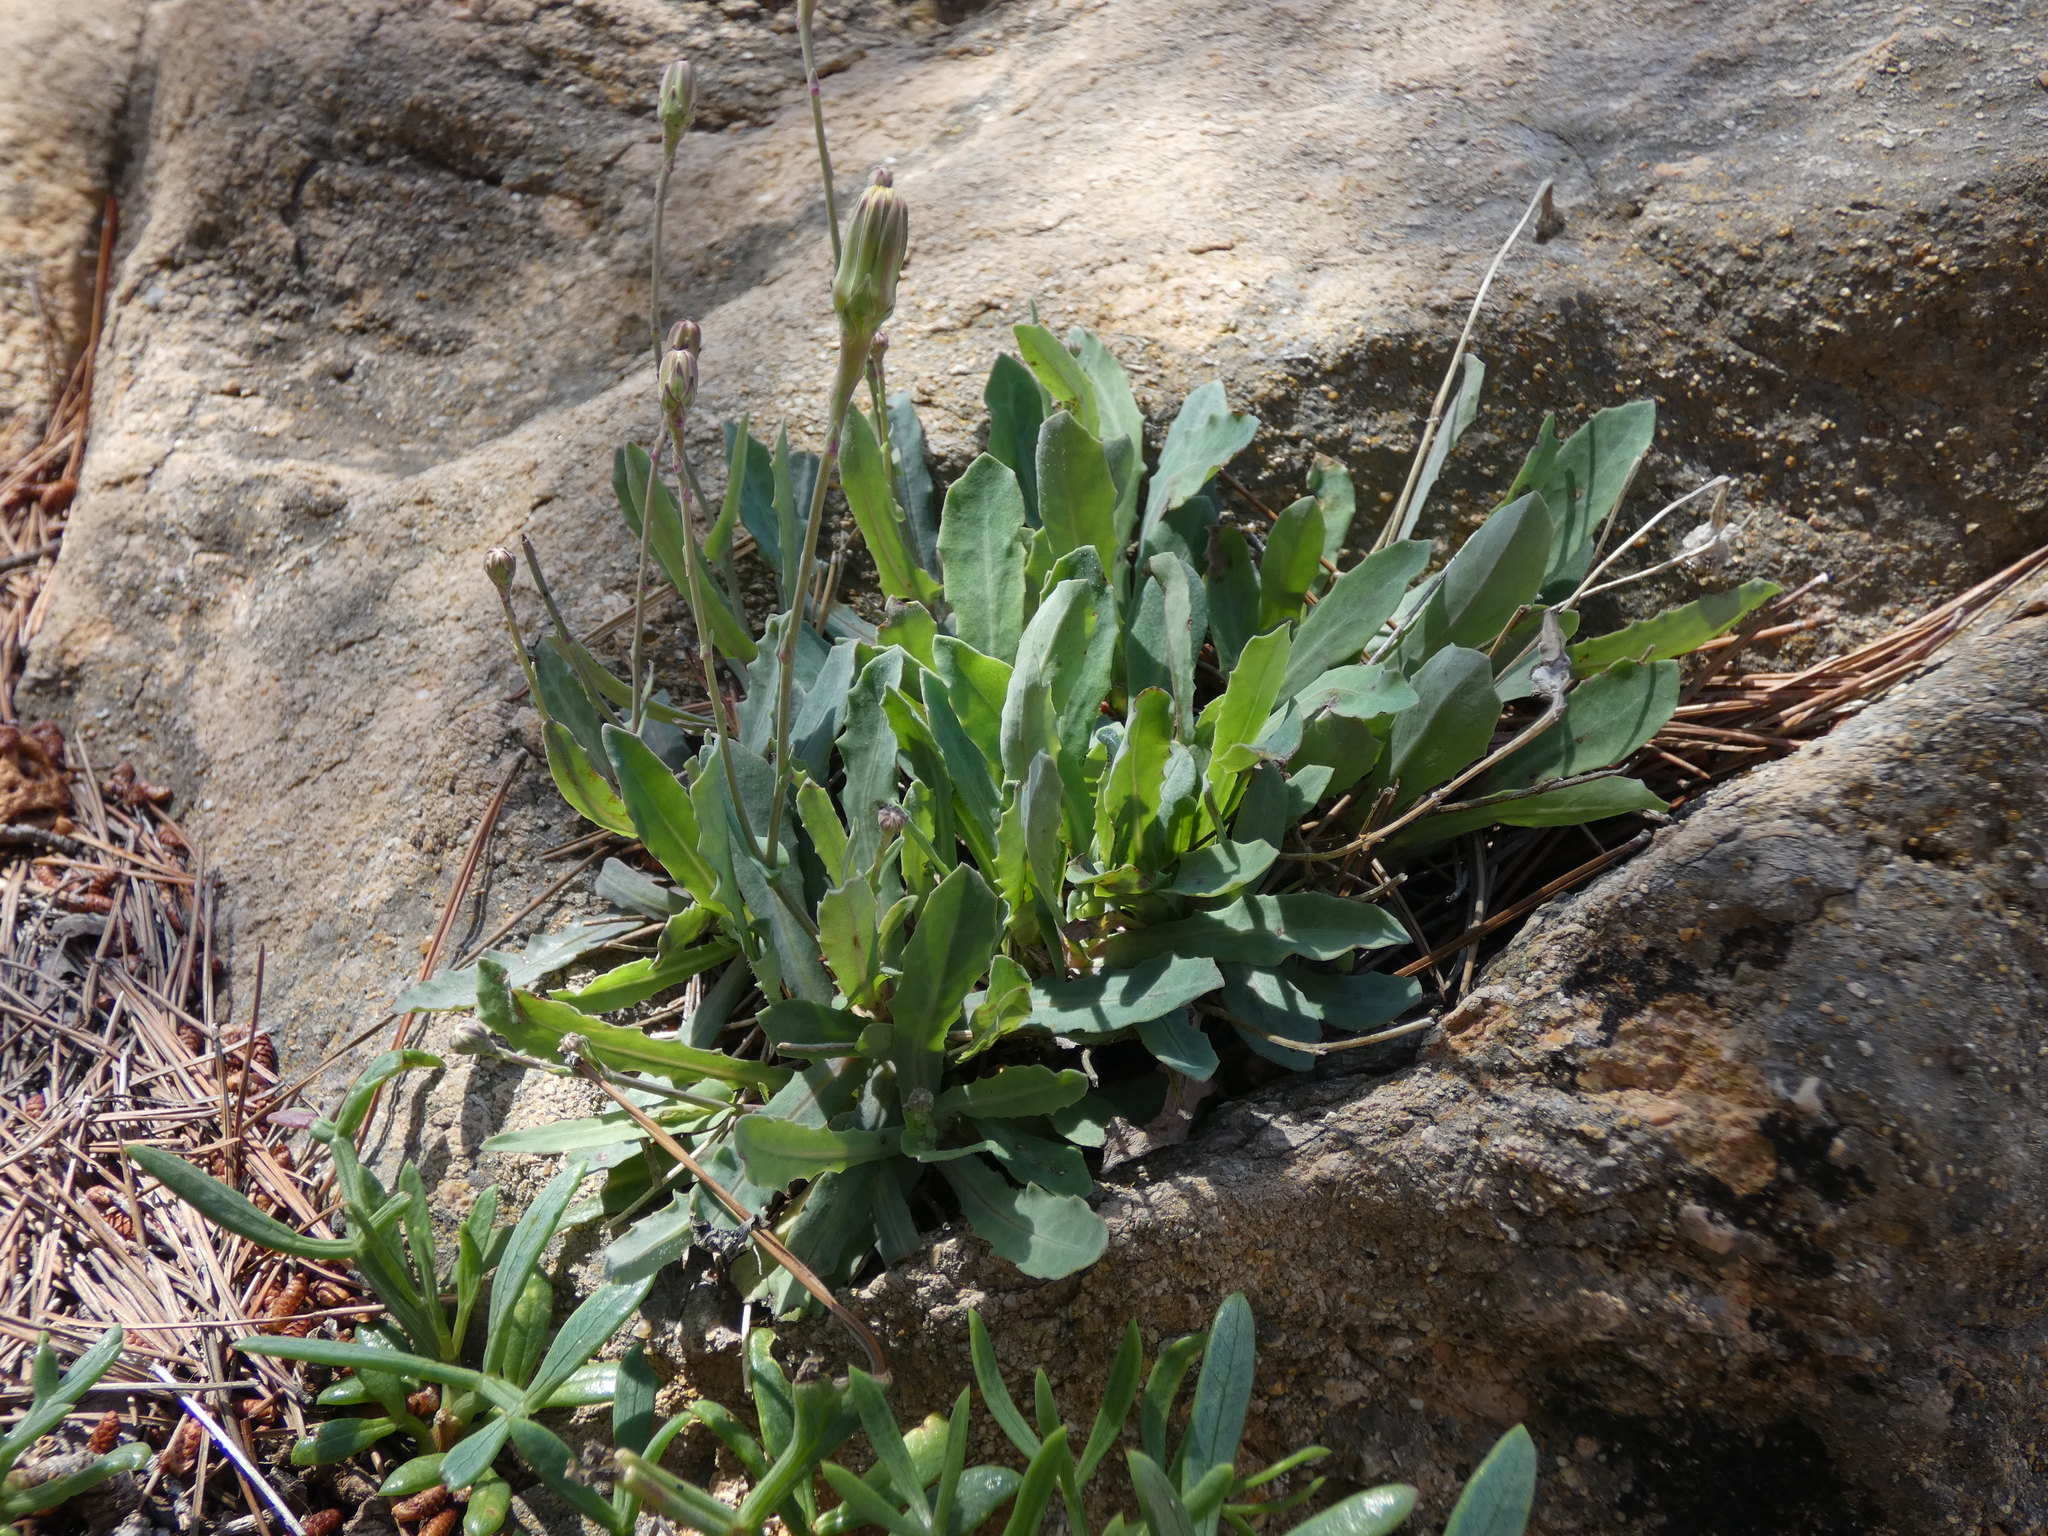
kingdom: Plantae
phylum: Tracheophyta
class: Magnoliopsida
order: Asterales
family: Asteraceae
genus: Reichardia
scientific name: Reichardia picroides
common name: Common brighteyes
